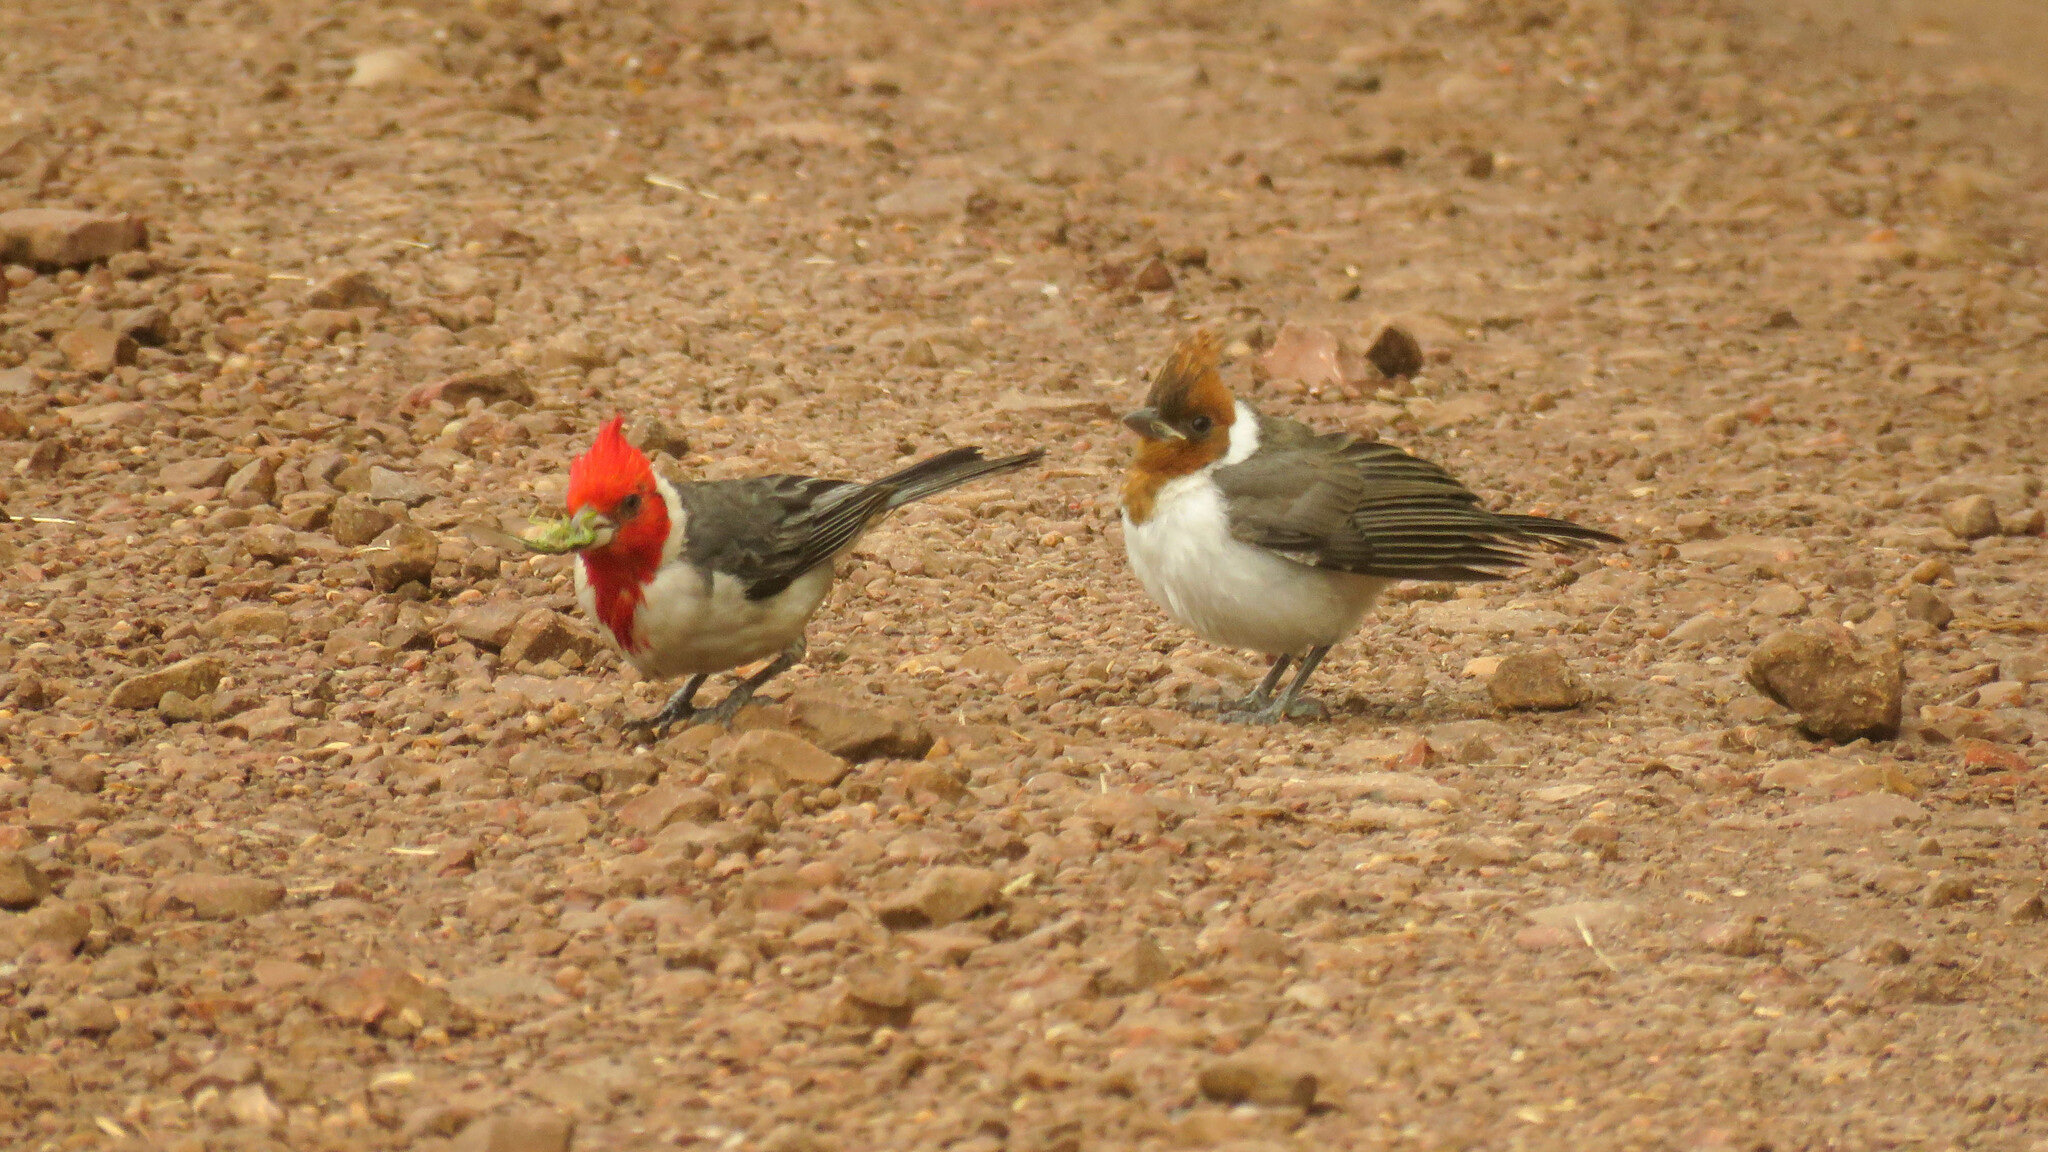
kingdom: Animalia
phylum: Chordata
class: Aves
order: Passeriformes
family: Thraupidae
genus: Paroaria
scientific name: Paroaria coronata
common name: Red-crested cardinal
